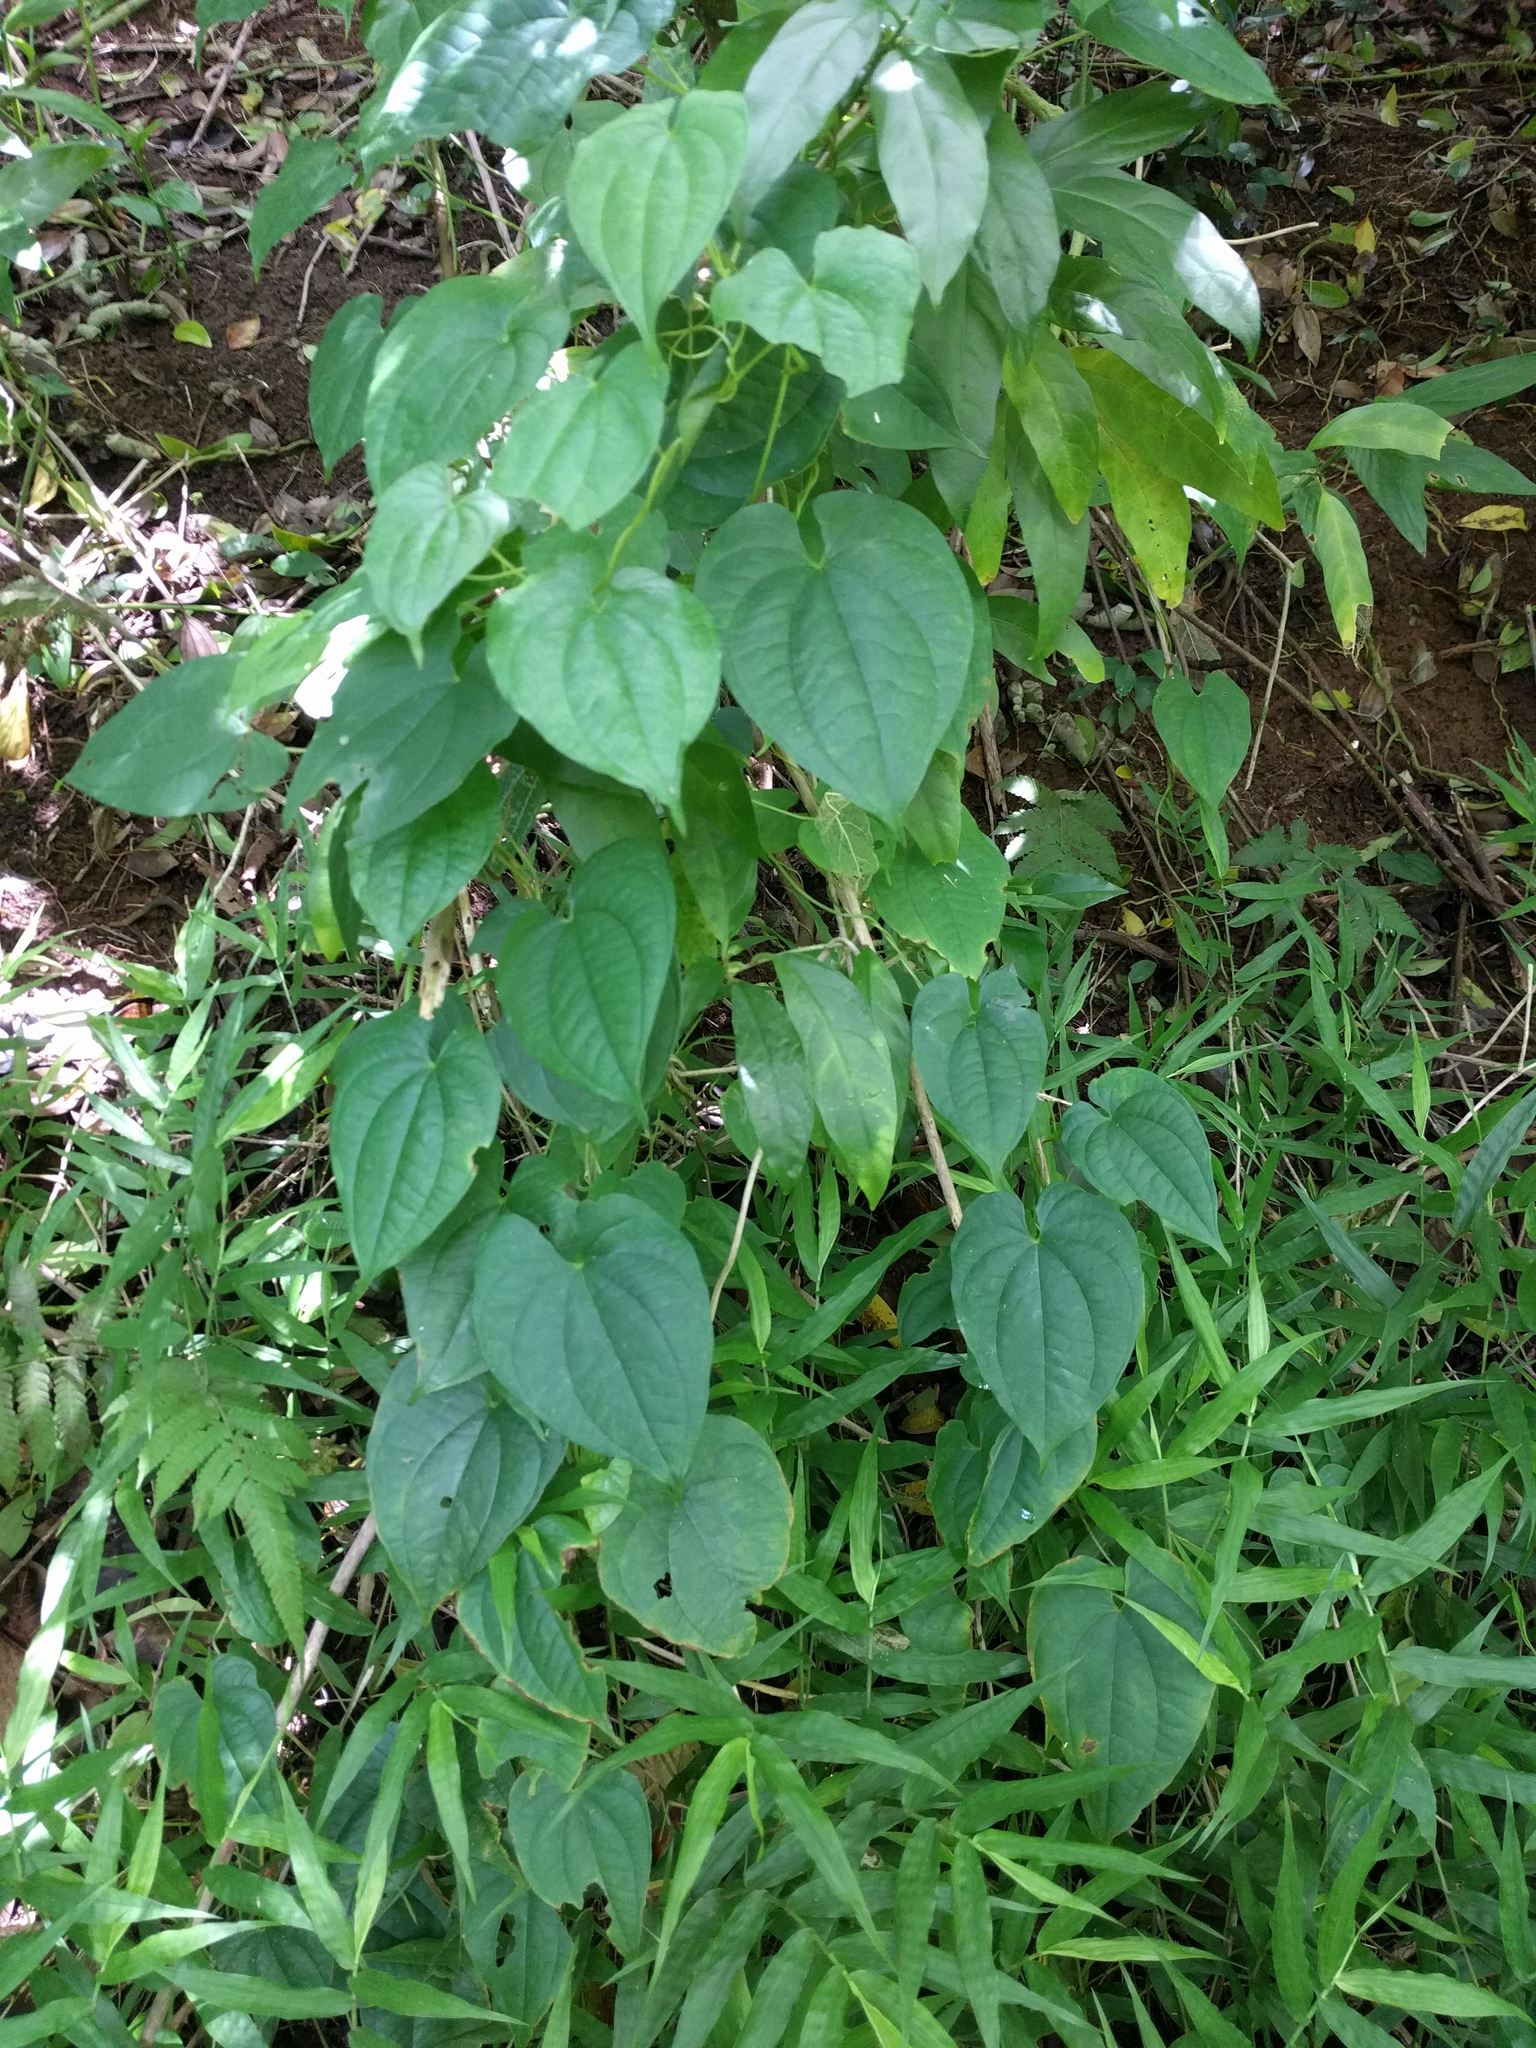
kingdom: Plantae
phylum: Tracheophyta
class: Liliopsida
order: Dioscoreales
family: Dioscoreaceae
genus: Dioscorea
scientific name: Dioscorea bulbifera
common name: Air yam
